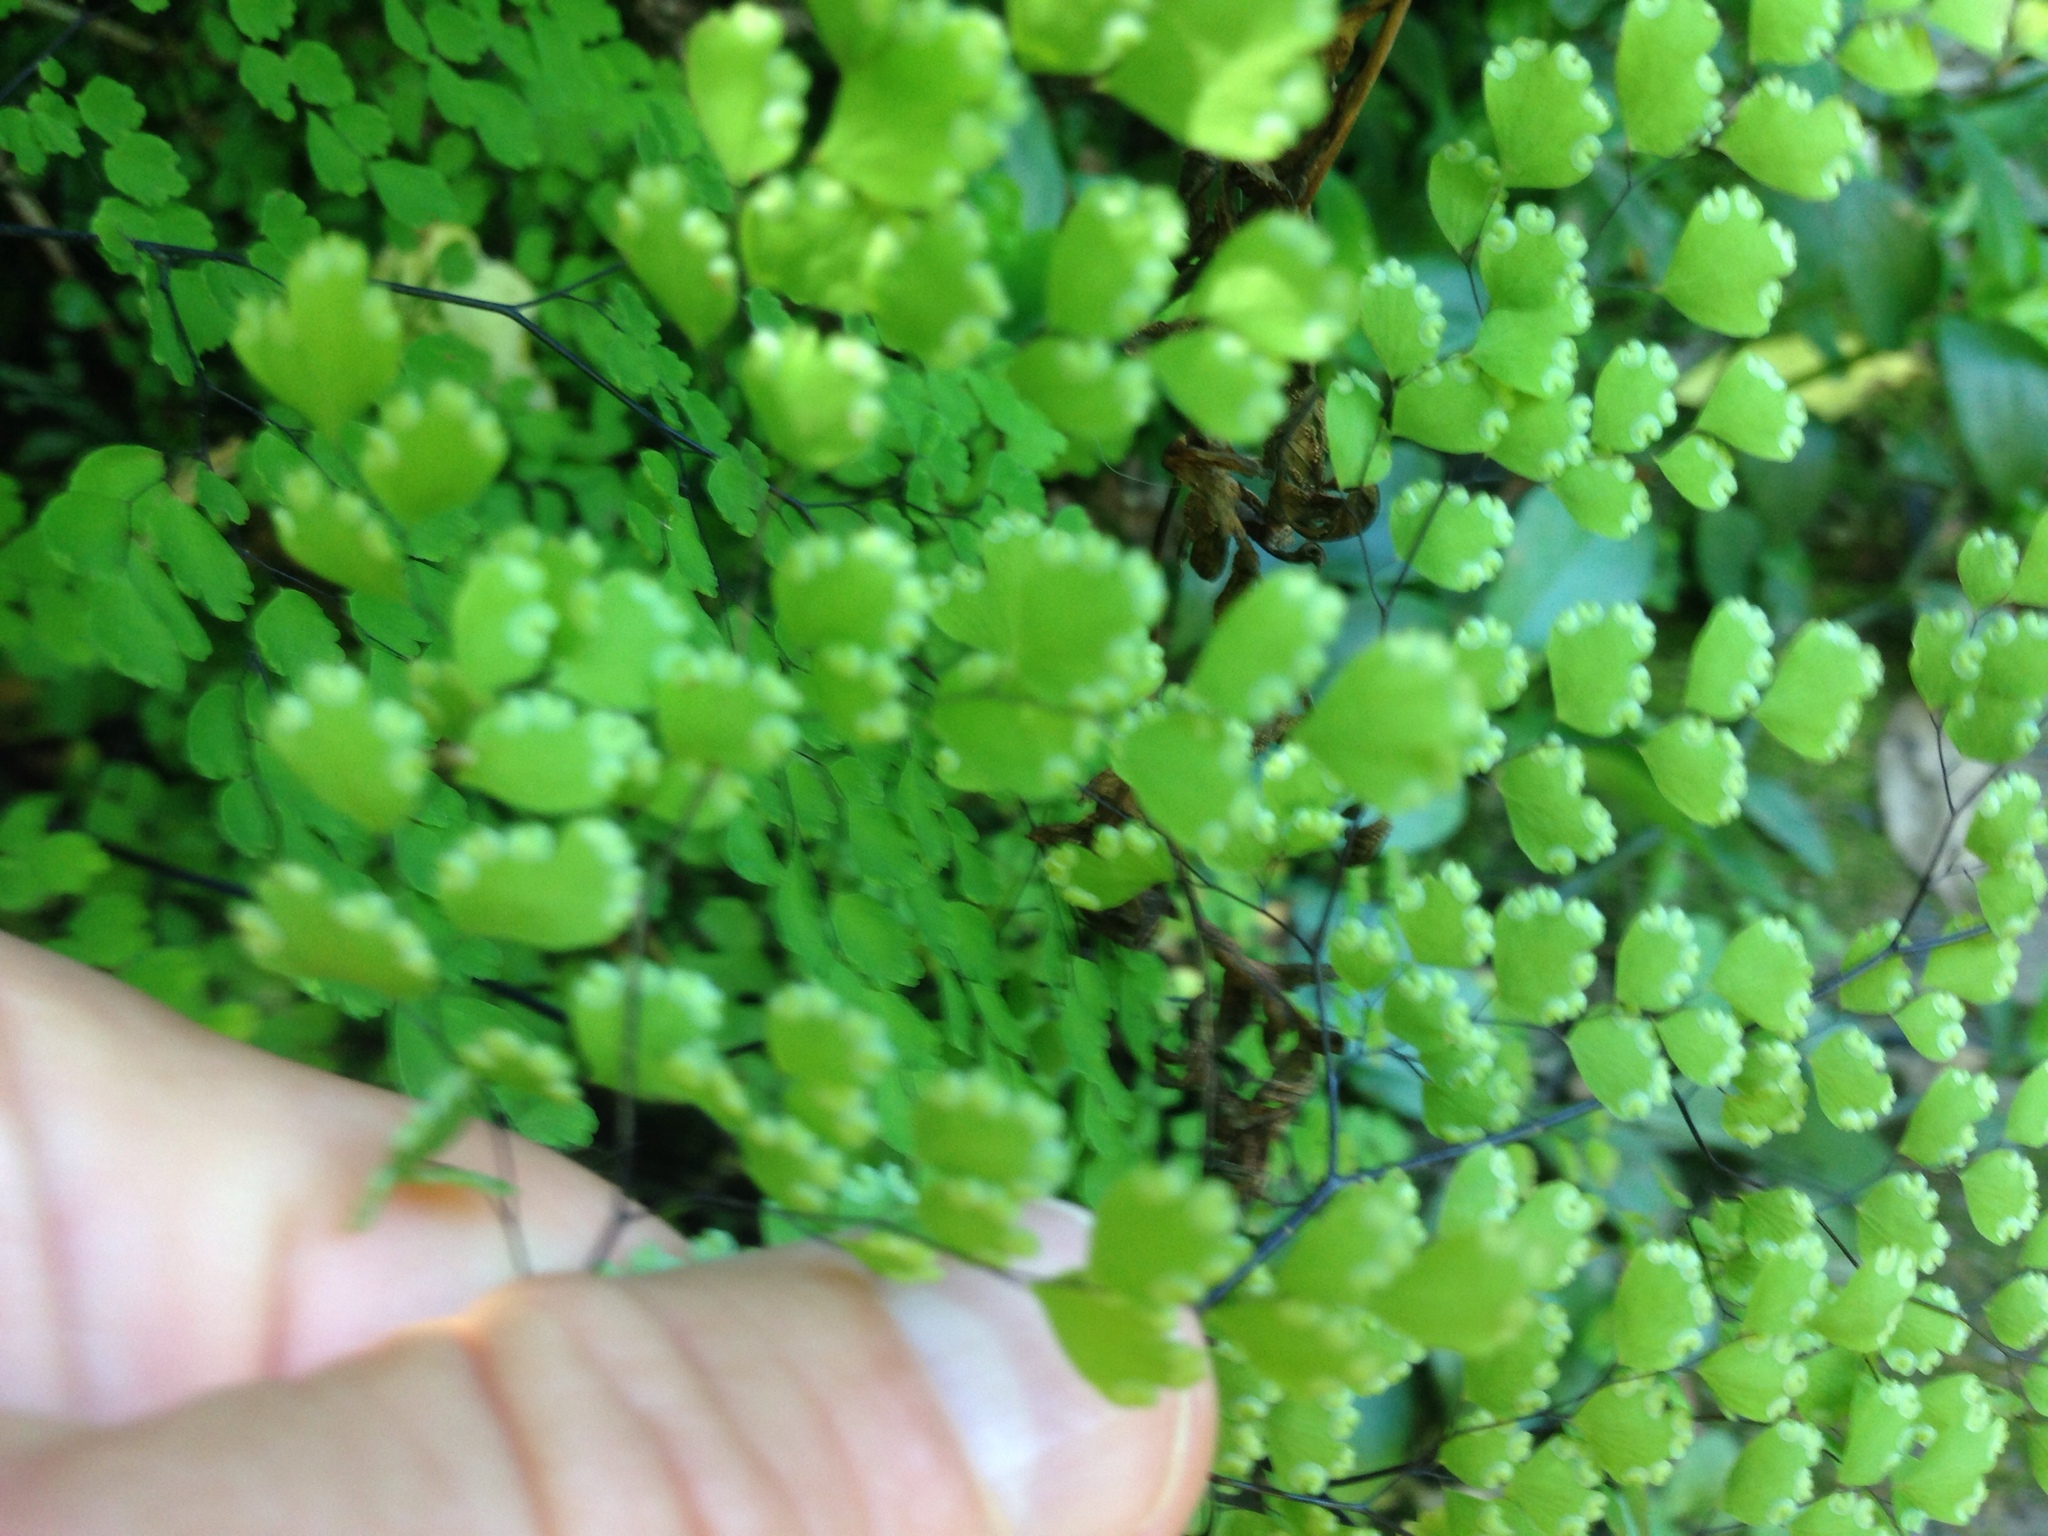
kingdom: Plantae
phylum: Tracheophyta
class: Polypodiopsida
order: Polypodiales
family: Pteridaceae
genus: Adiantum
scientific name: Adiantum raddianum
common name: Delta maidenhair fern
